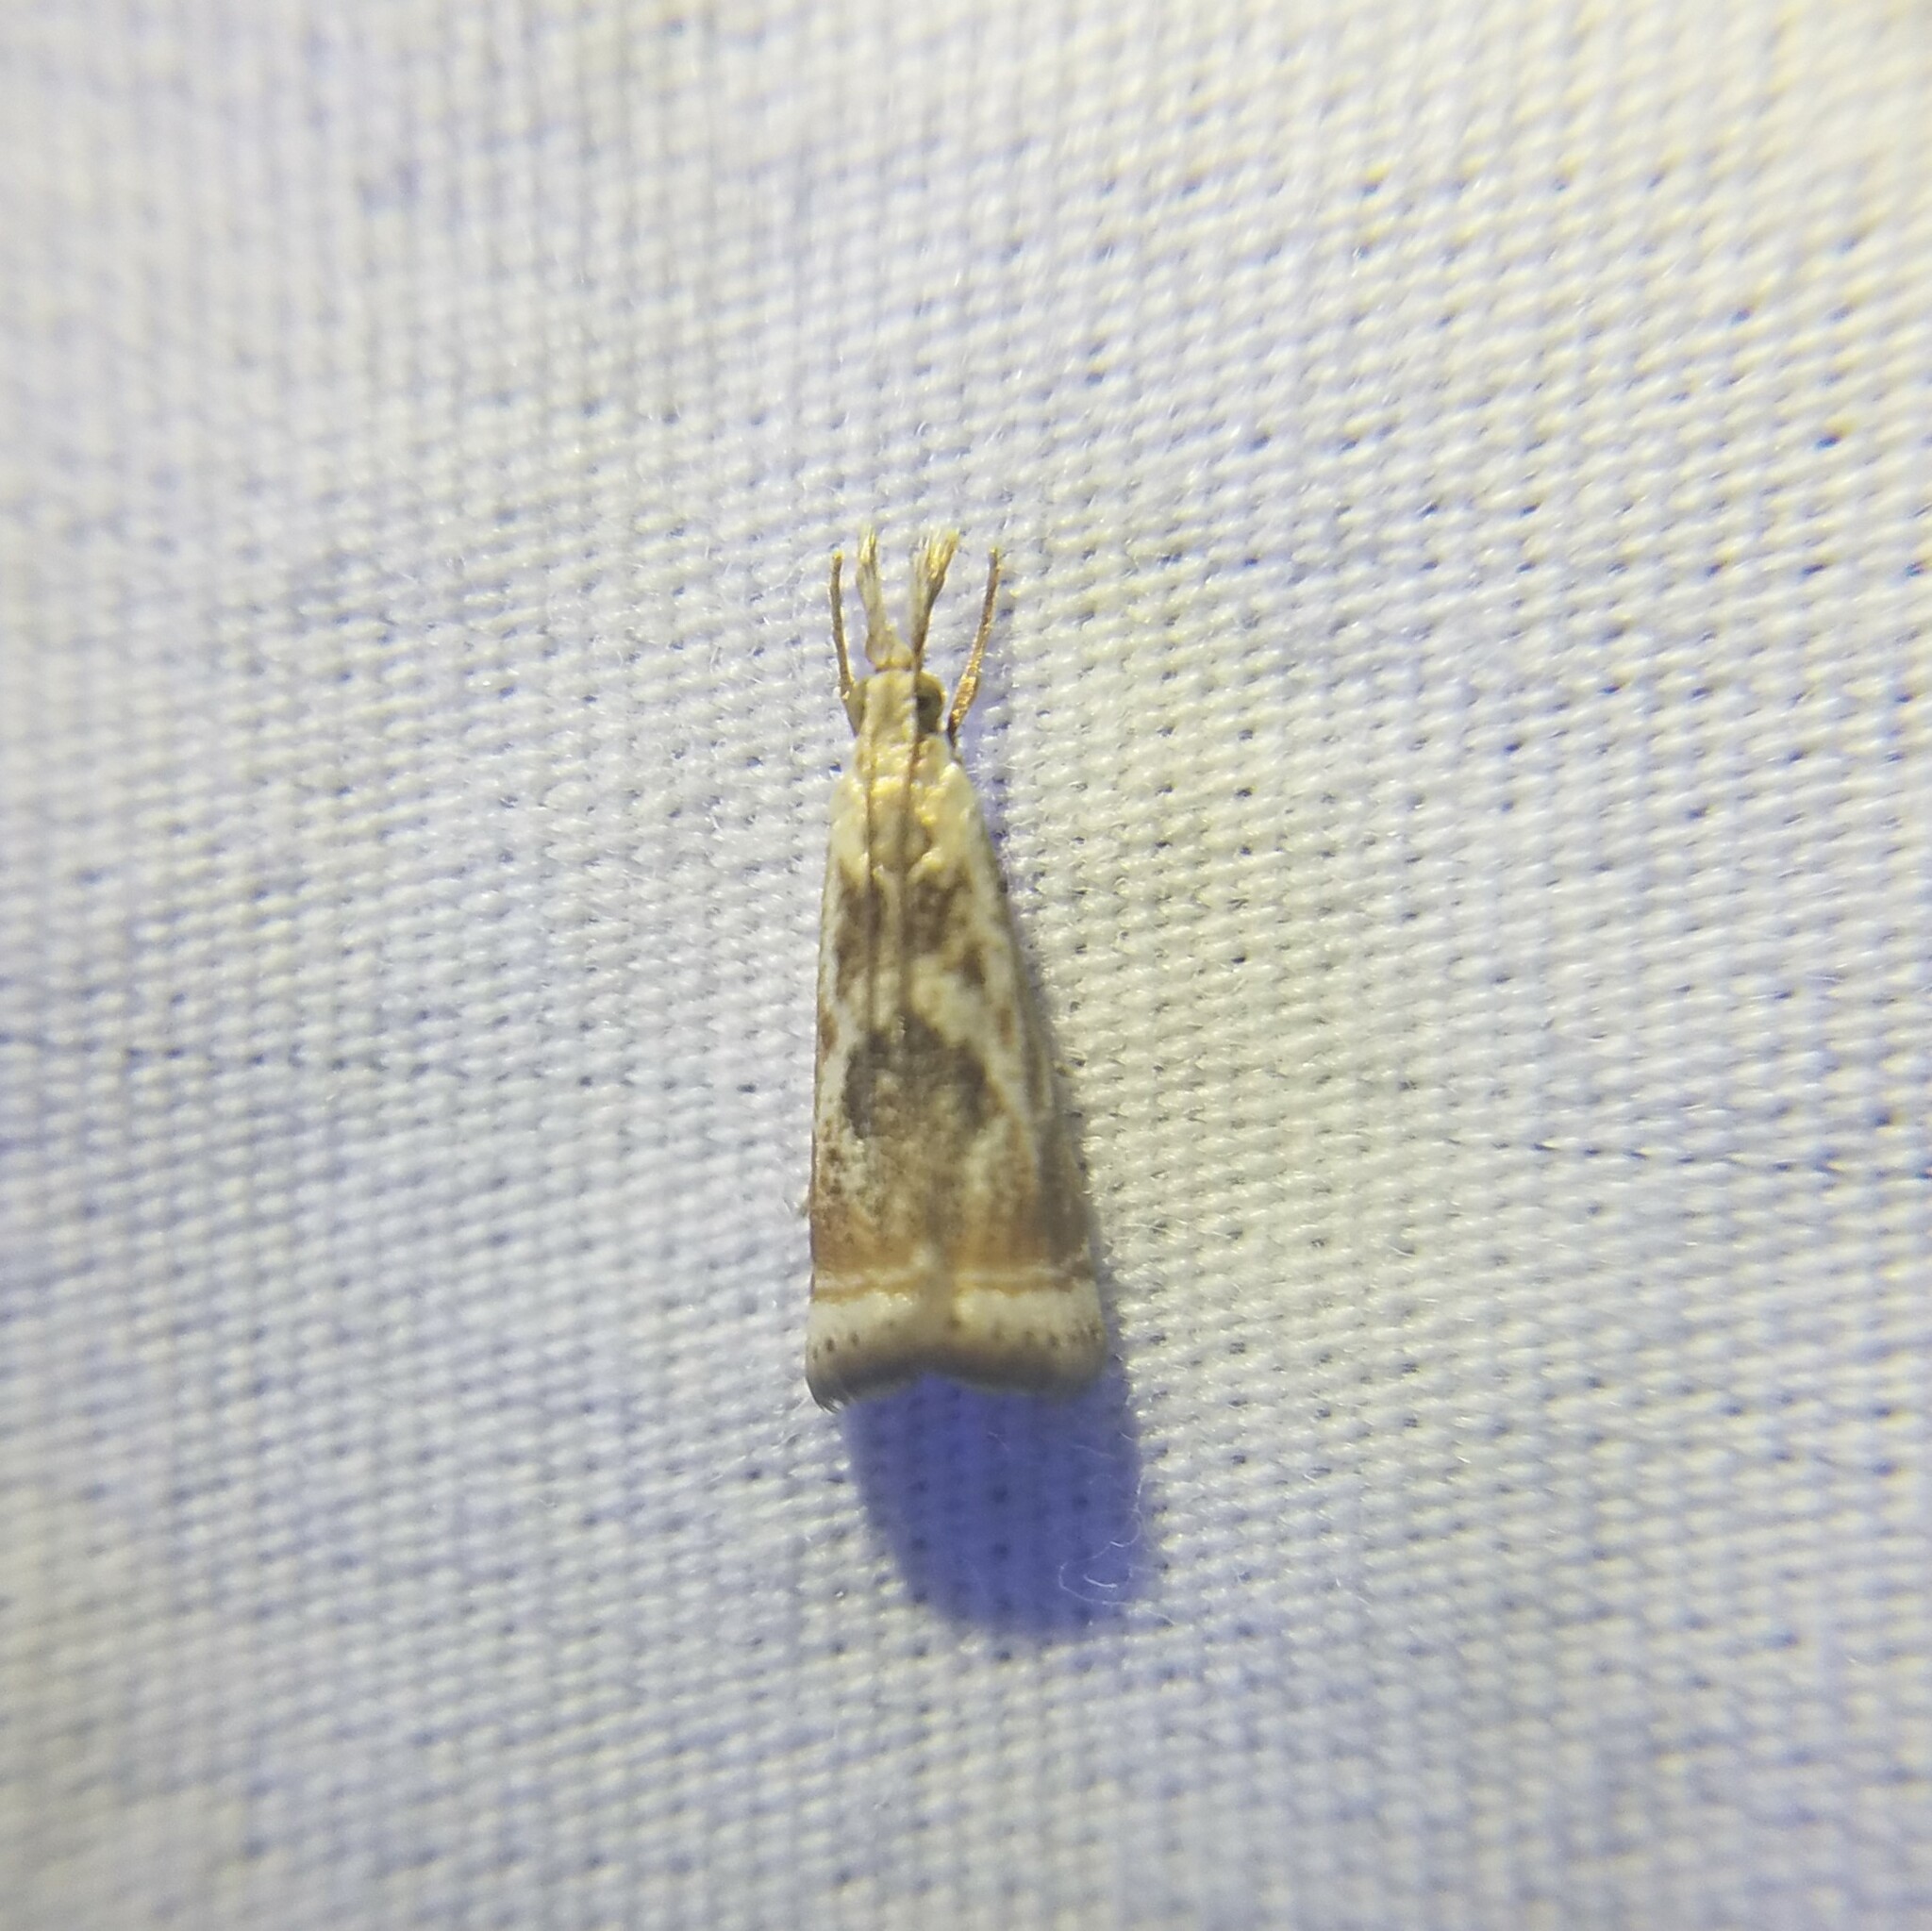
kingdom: Animalia
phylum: Arthropoda
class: Insecta
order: Lepidoptera
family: Crambidae
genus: Microcrambus
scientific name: Microcrambus elegans
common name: Elegant grass-veneer
